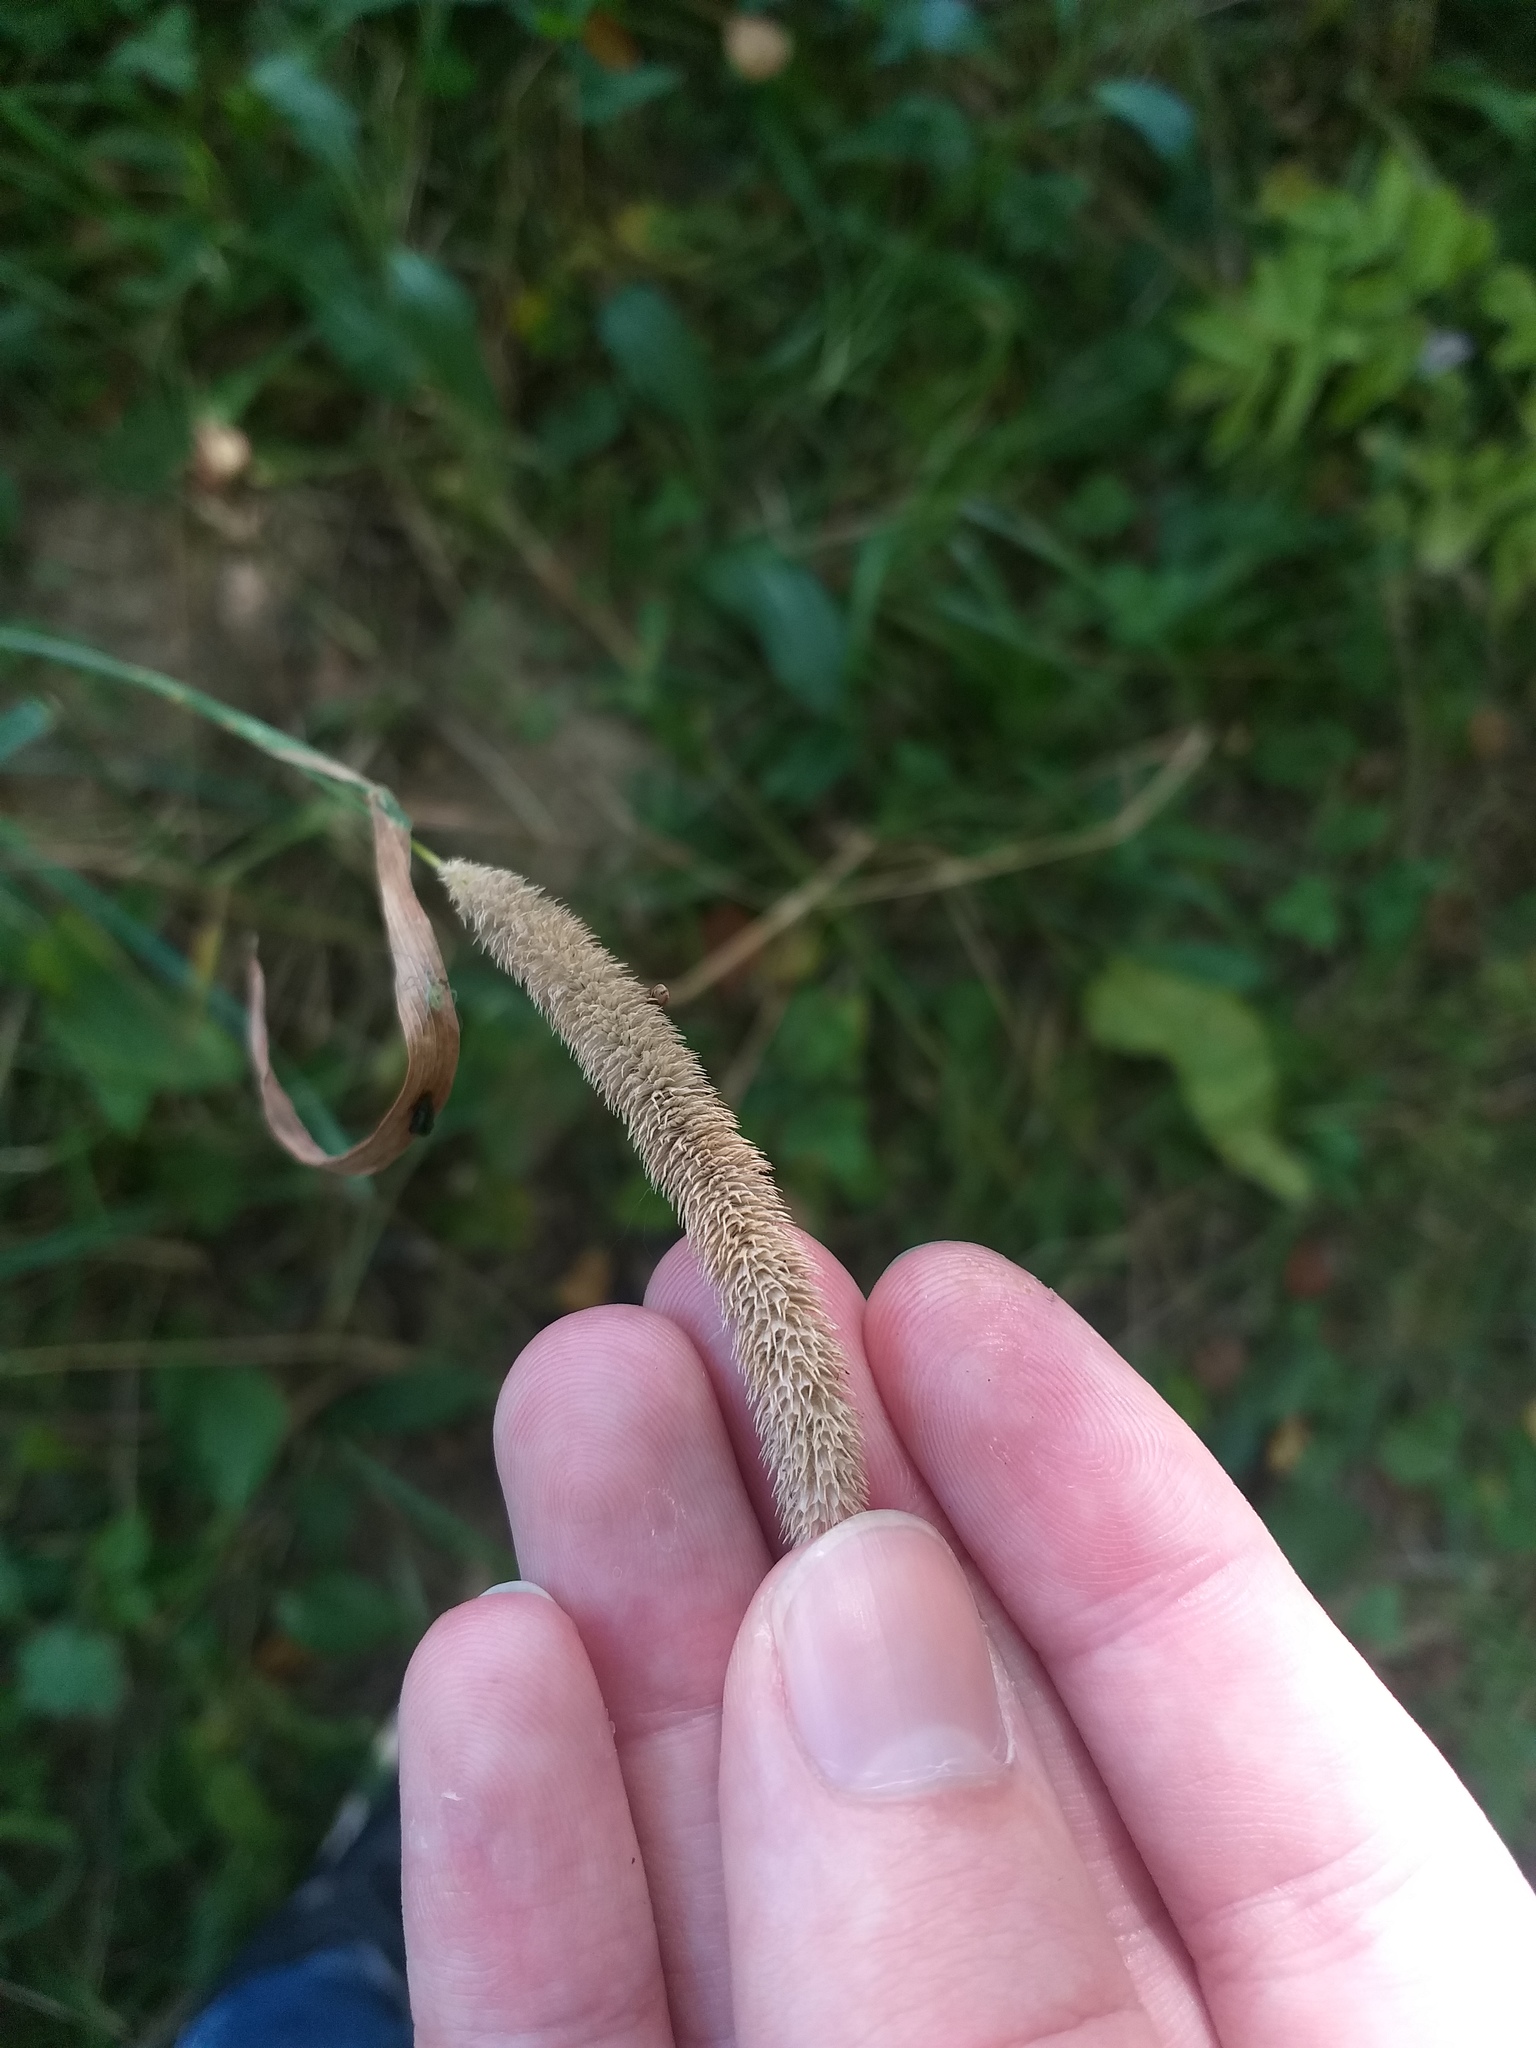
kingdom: Plantae
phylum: Tracheophyta
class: Liliopsida
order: Poales
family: Poaceae
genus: Phleum
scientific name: Phleum pratense
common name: Timothy grass
